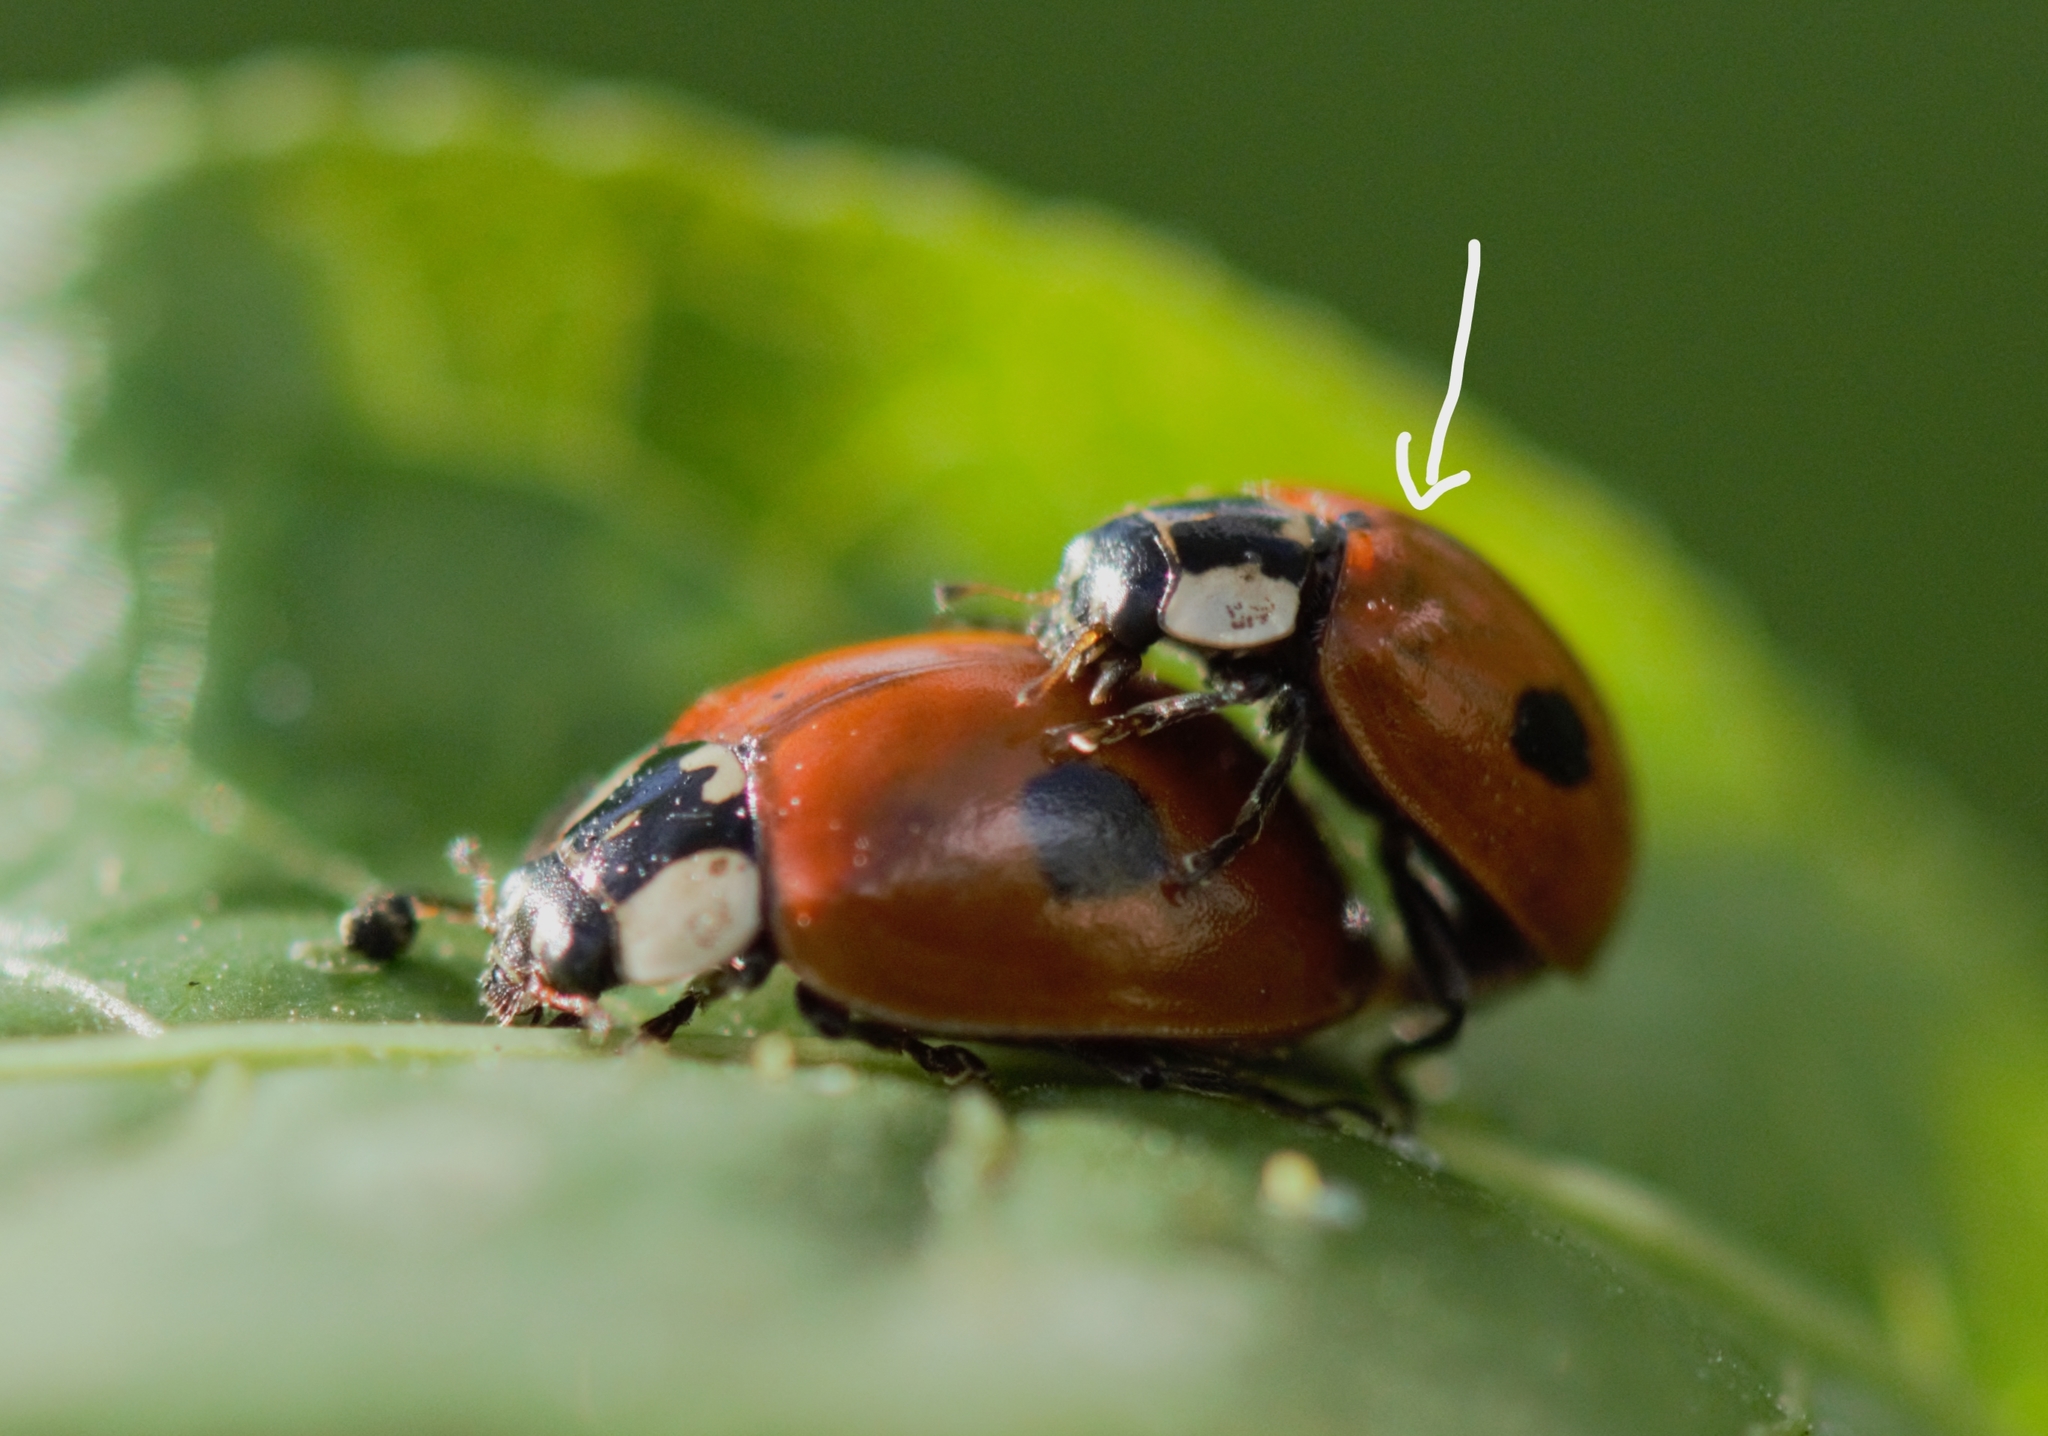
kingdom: Animalia
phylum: Arthropoda
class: Insecta
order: Coleoptera
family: Coccinellidae
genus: Adalia
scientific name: Adalia bipunctata
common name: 2-spot ladybird
